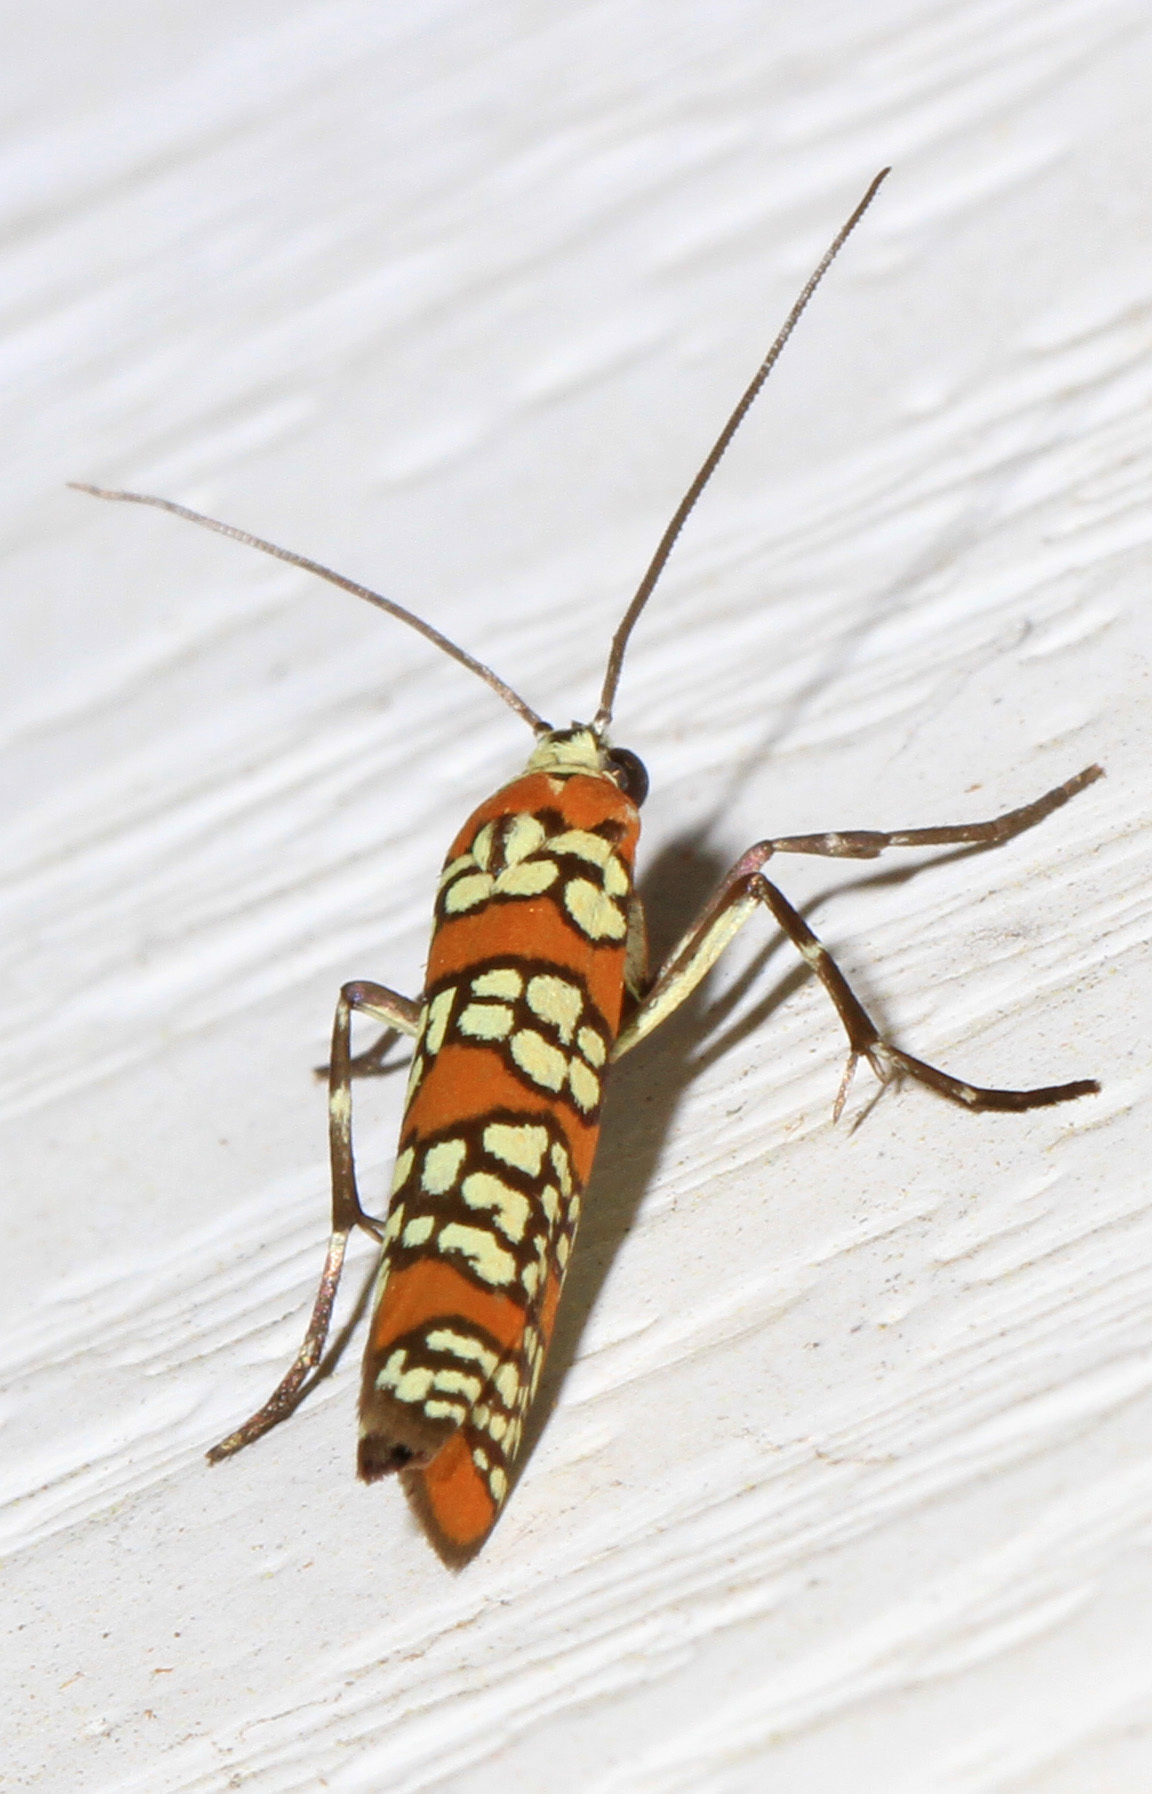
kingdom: Animalia
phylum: Arthropoda
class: Insecta
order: Lepidoptera
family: Attevidae
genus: Atteva
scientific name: Atteva punctella
